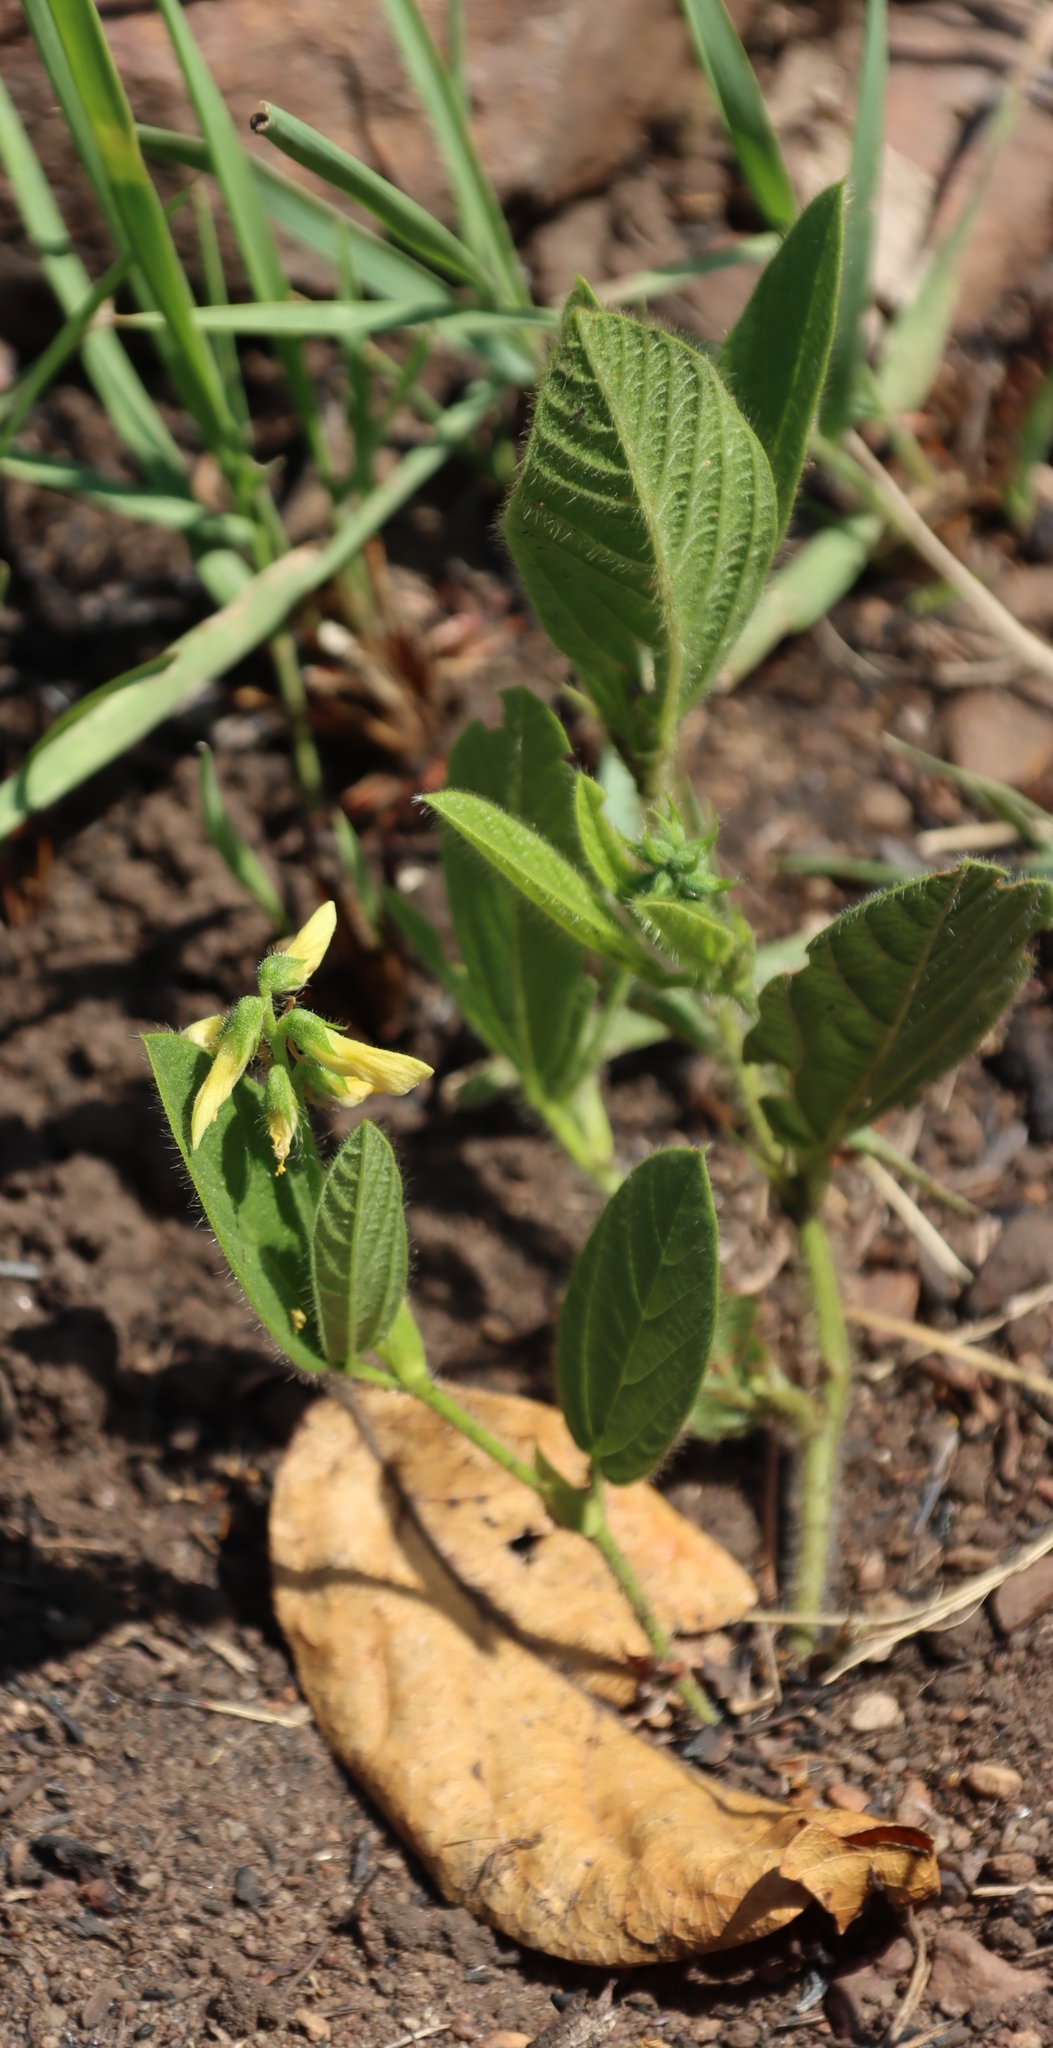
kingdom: Plantae
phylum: Tracheophyta
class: Magnoliopsida
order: Fabales
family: Fabaceae
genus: Eriosema
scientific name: Eriosema salignum
